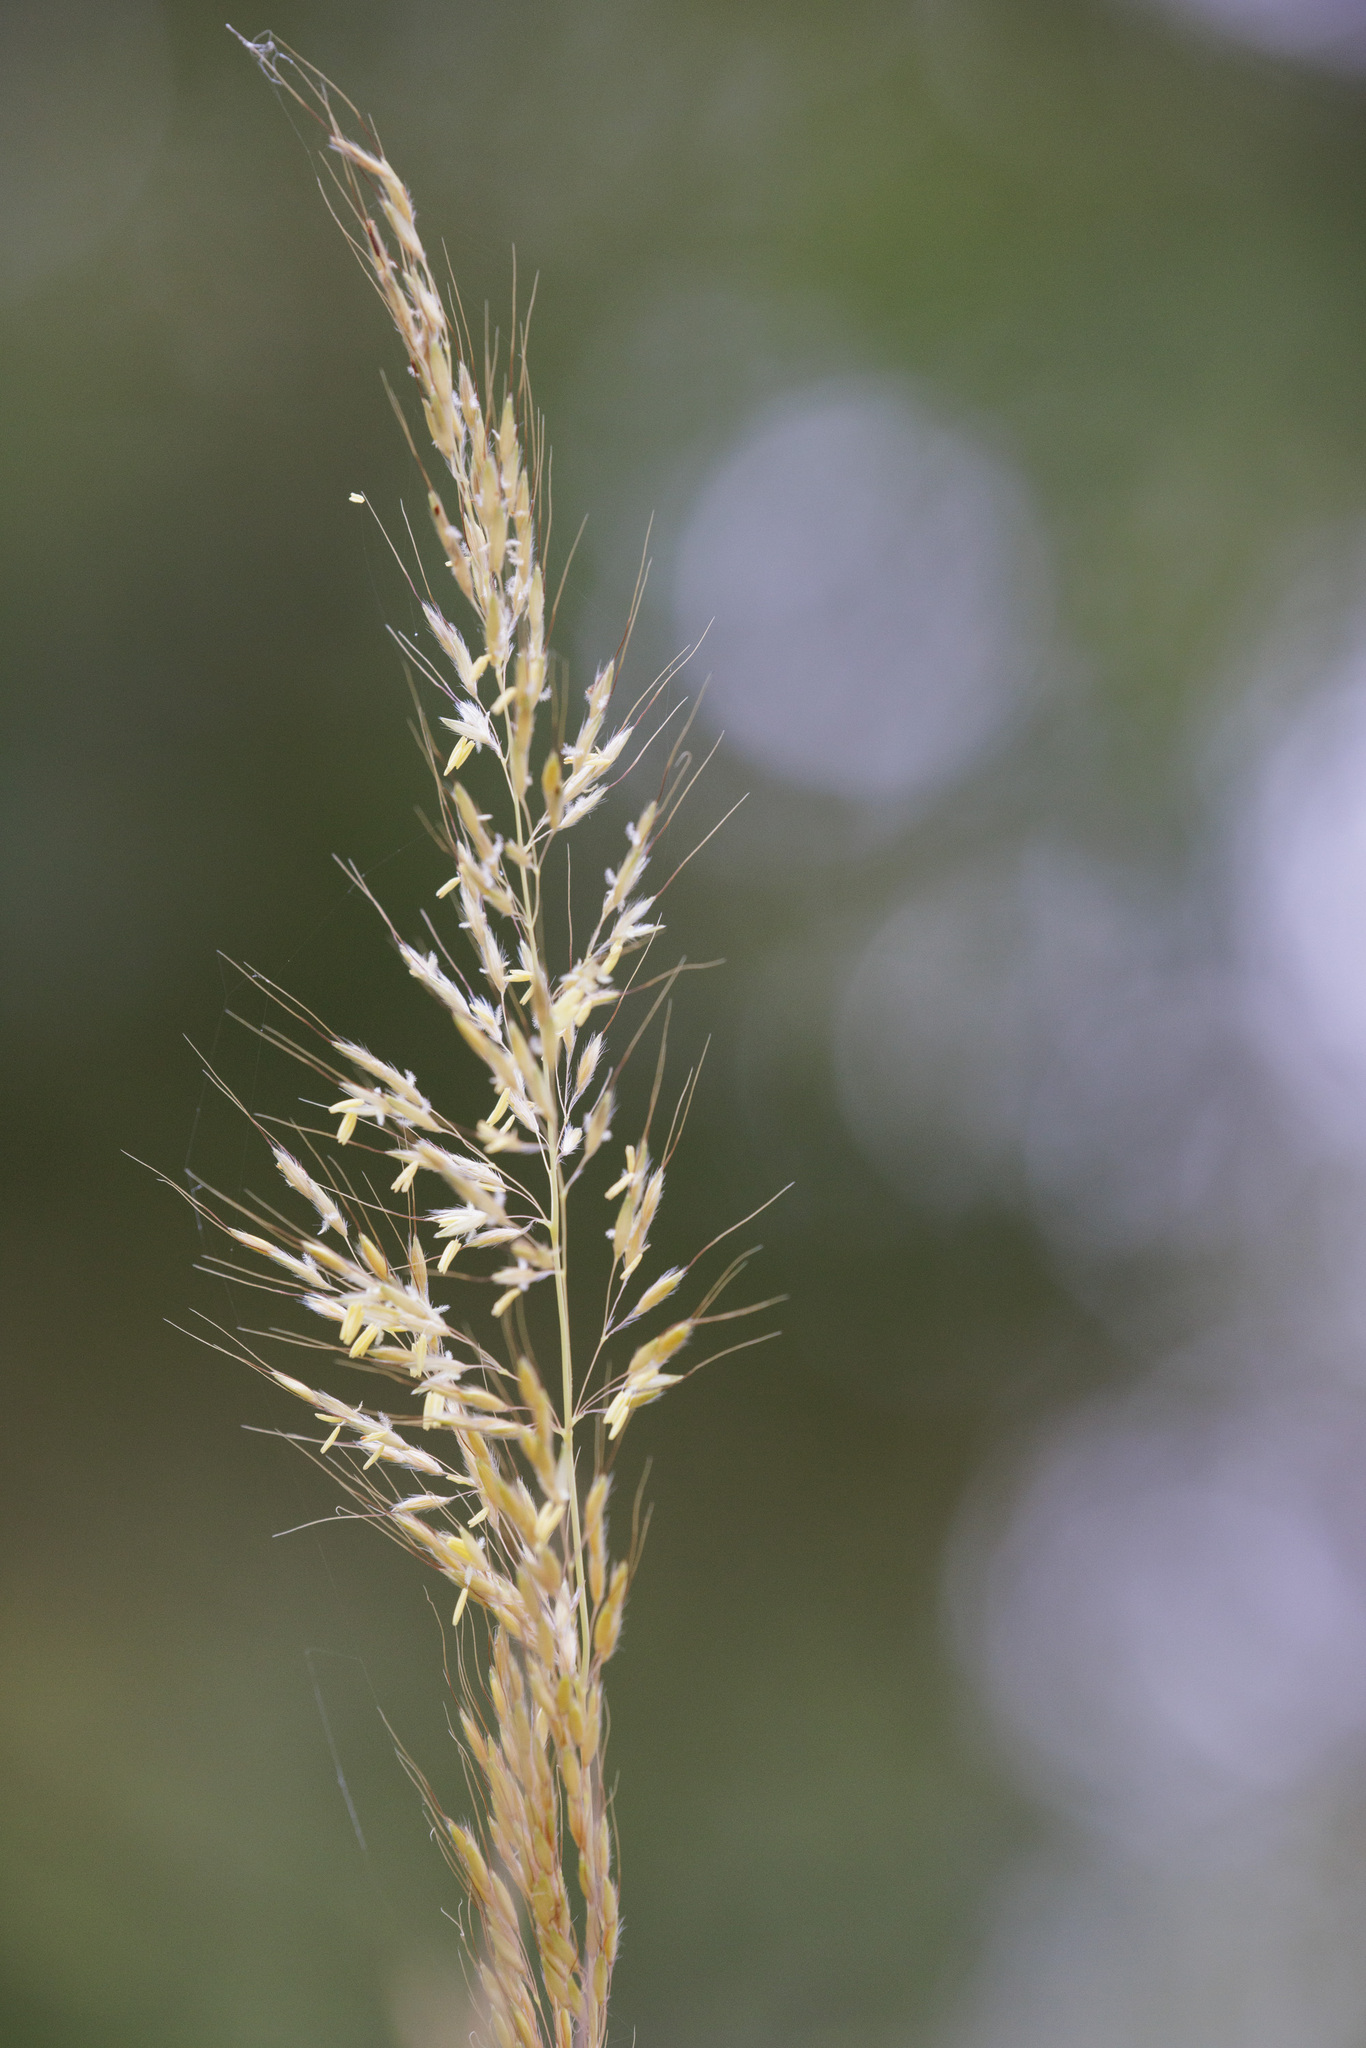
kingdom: Plantae
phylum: Tracheophyta
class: Liliopsida
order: Poales
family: Poaceae
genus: Sorghastrum
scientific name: Sorghastrum nutans
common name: Indian grass
